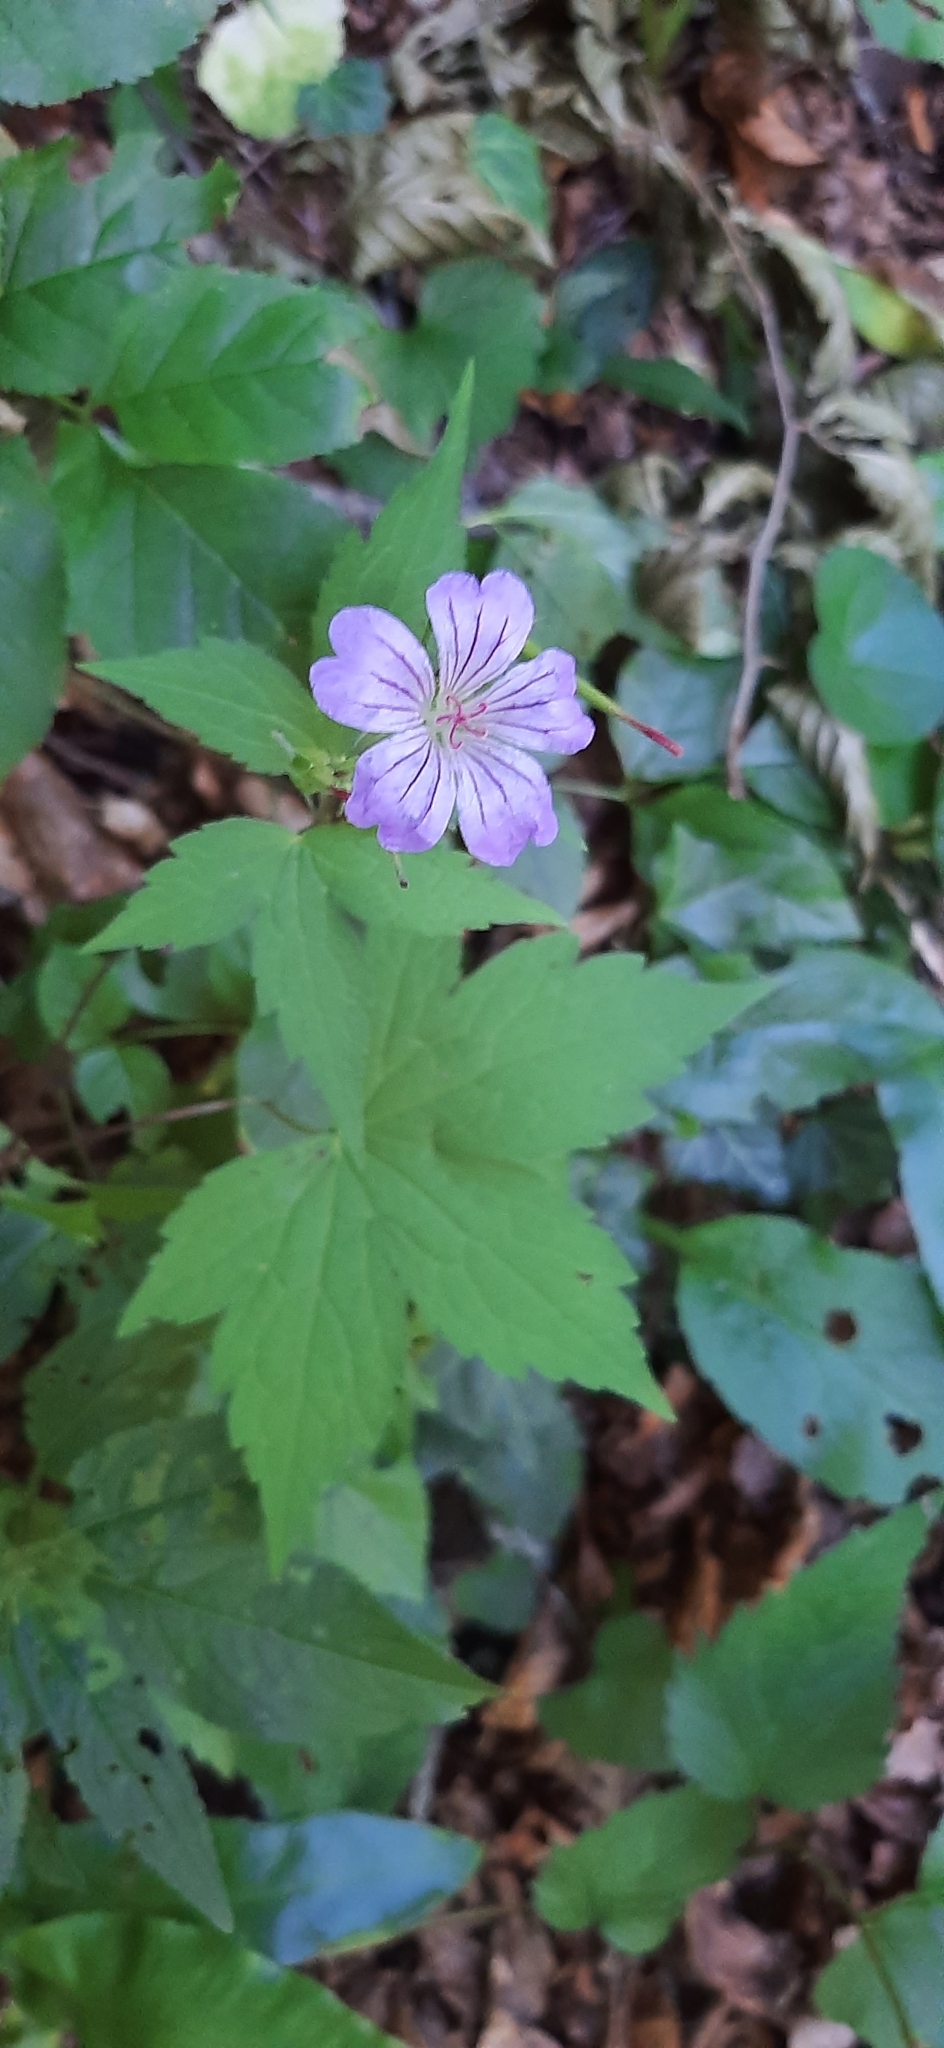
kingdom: Plantae
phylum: Tracheophyta
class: Magnoliopsida
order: Geraniales
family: Geraniaceae
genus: Geranium
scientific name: Geranium nodosum
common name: Knotted crane's-bill
